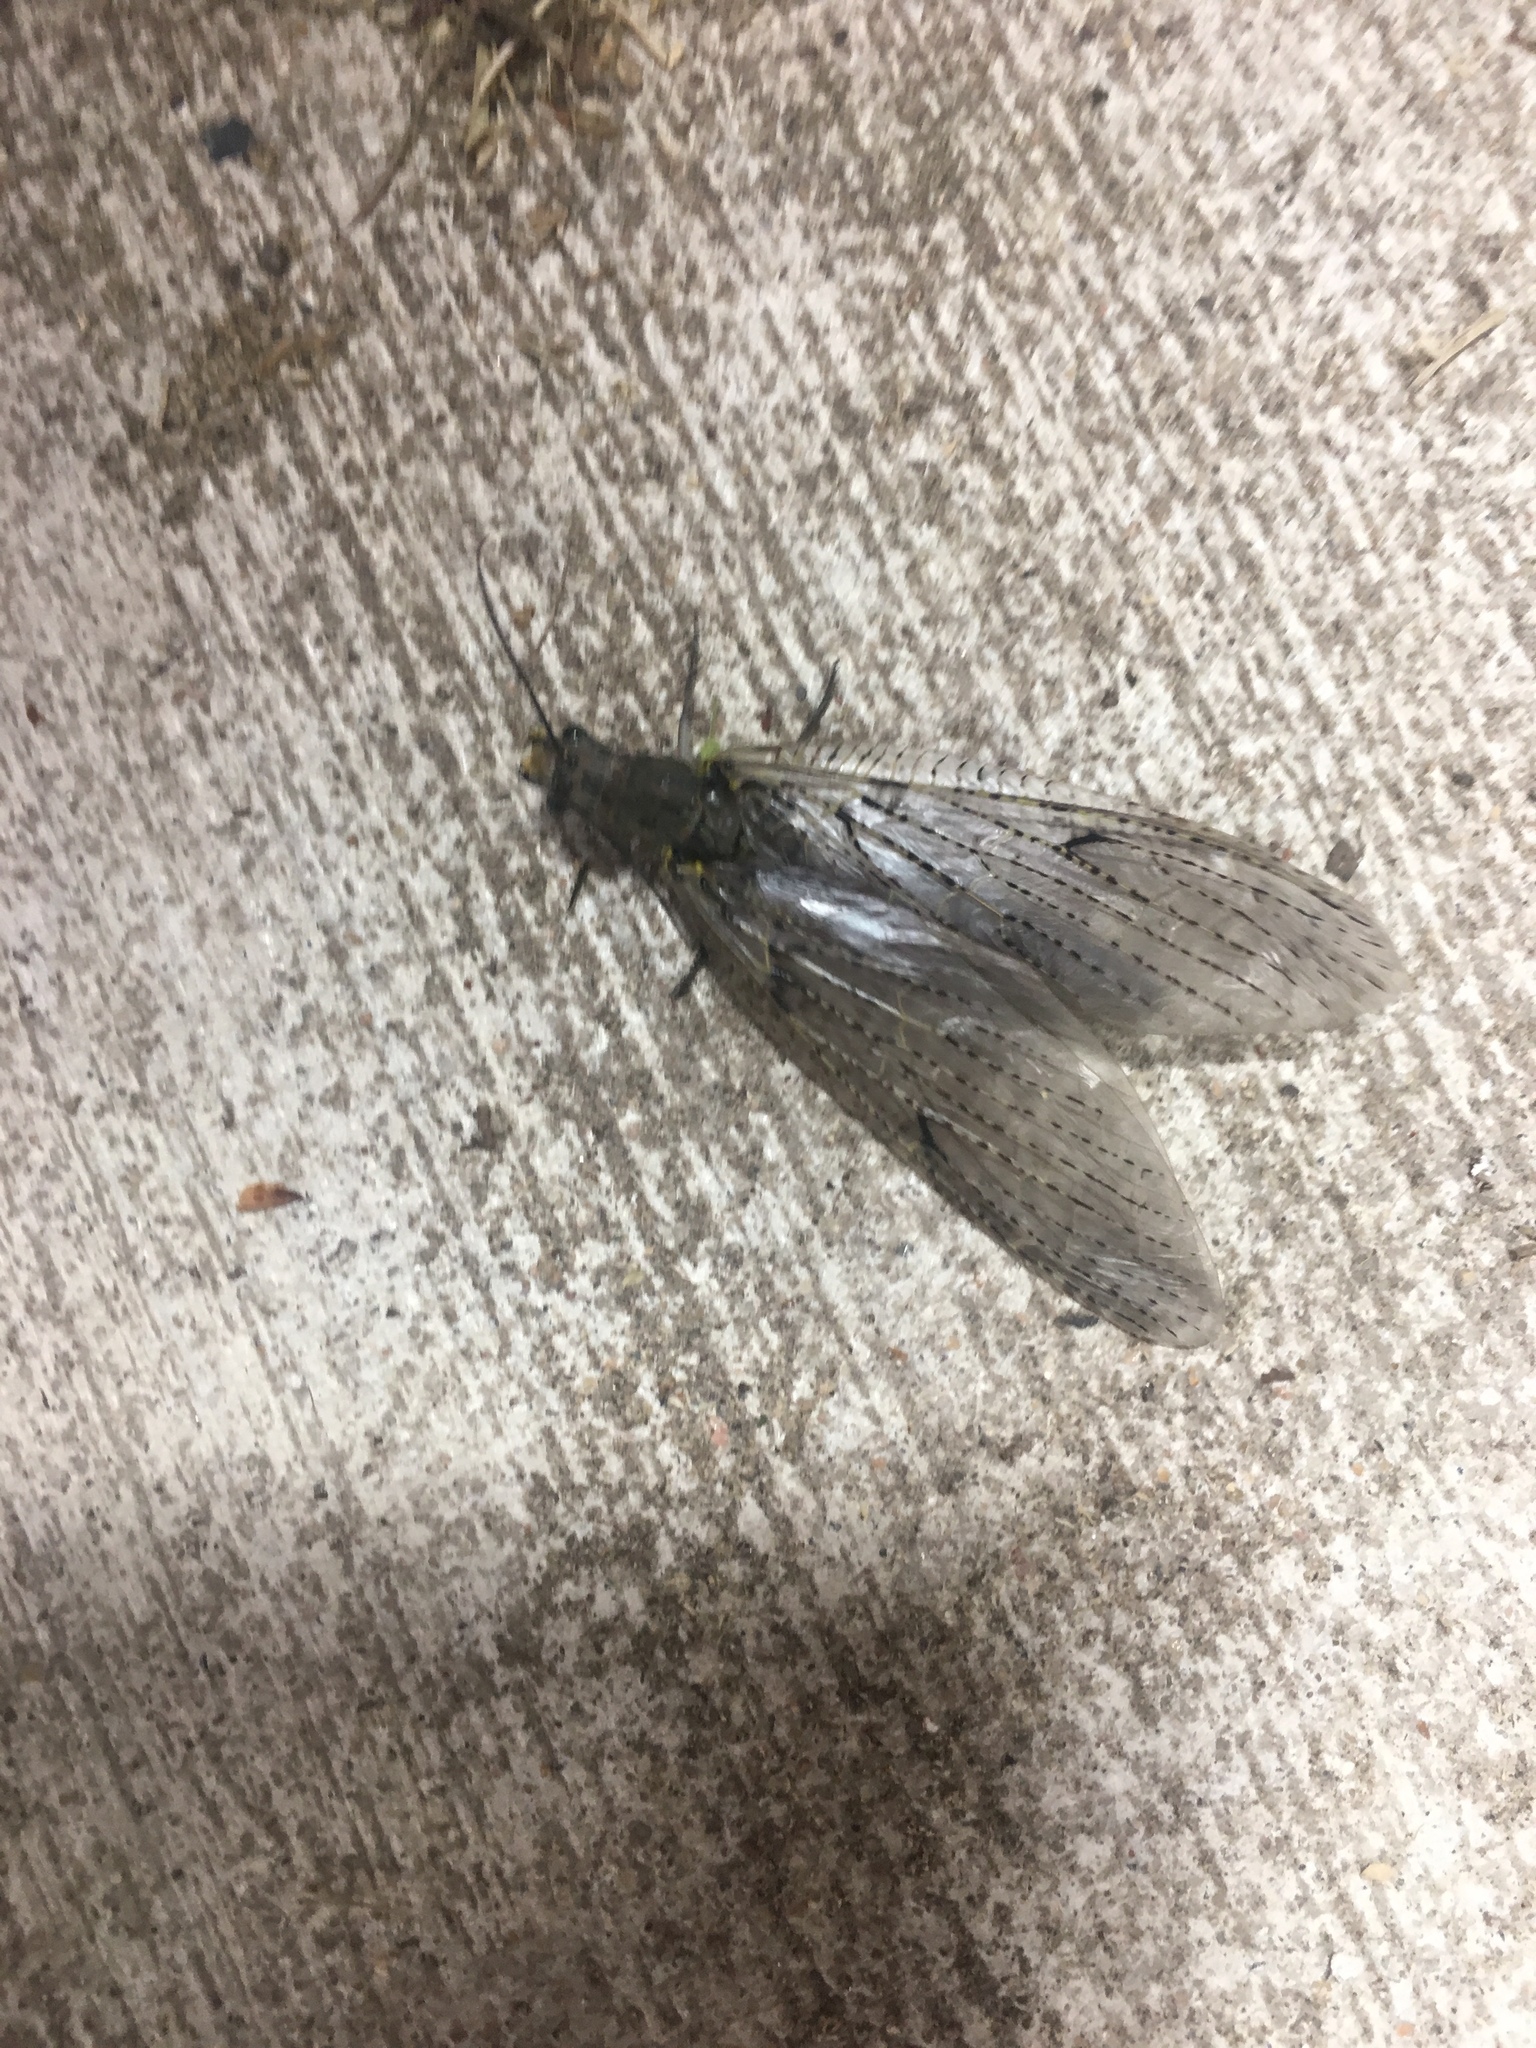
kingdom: Animalia
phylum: Arthropoda
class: Insecta
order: Megaloptera
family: Corydalidae
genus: Chauliodes
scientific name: Chauliodes rastricornis
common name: Spring fishfly
